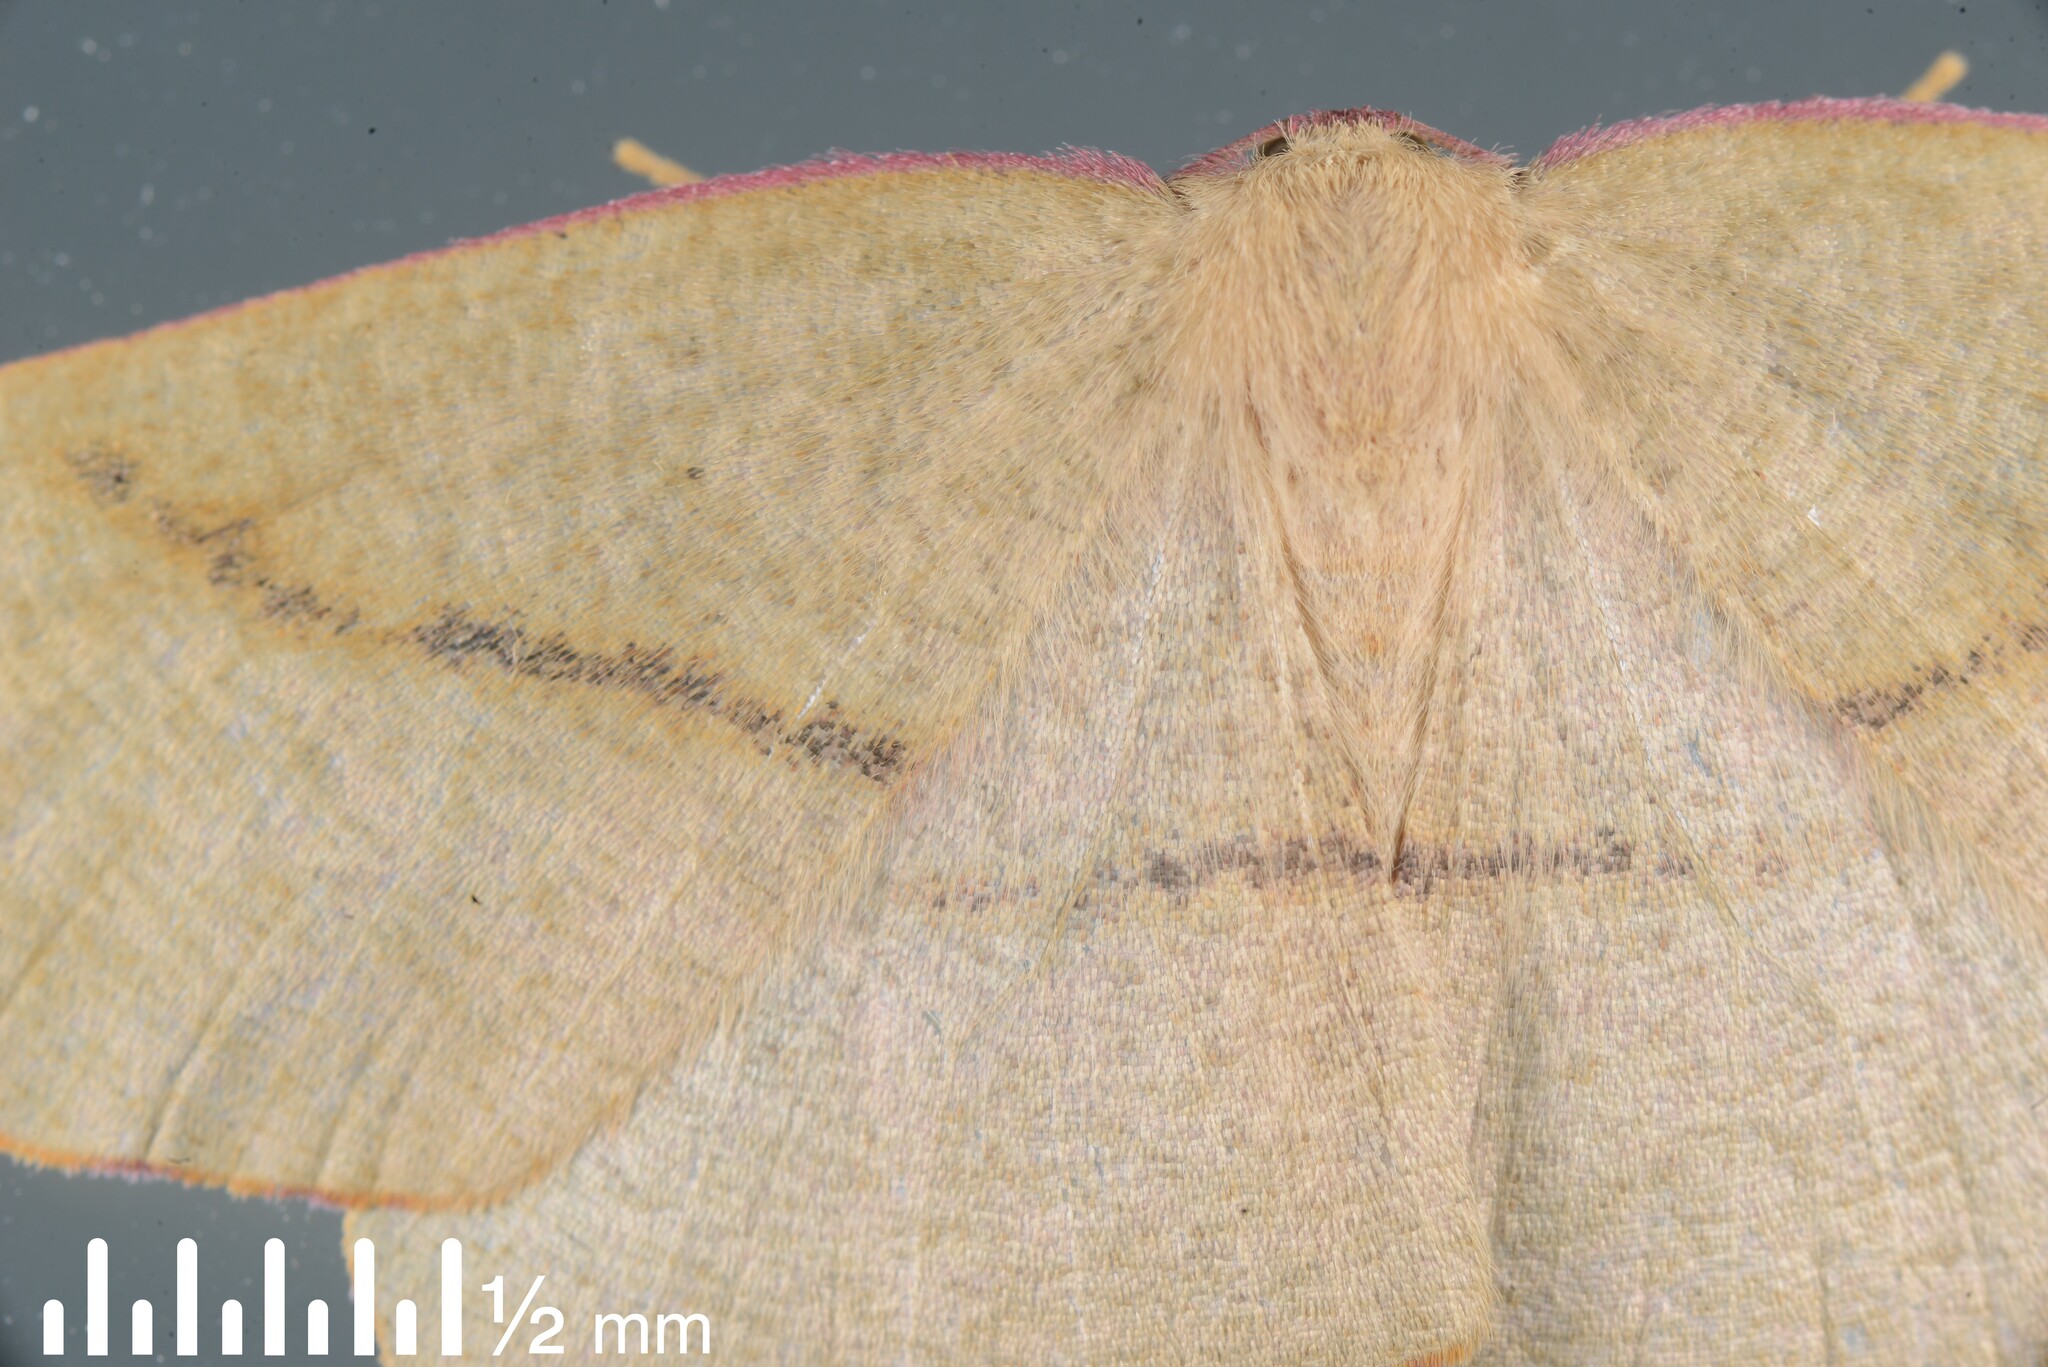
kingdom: Animalia
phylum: Arthropoda
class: Insecta
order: Lepidoptera
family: Geometridae
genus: Xyridacma
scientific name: Xyridacma alectoraria
